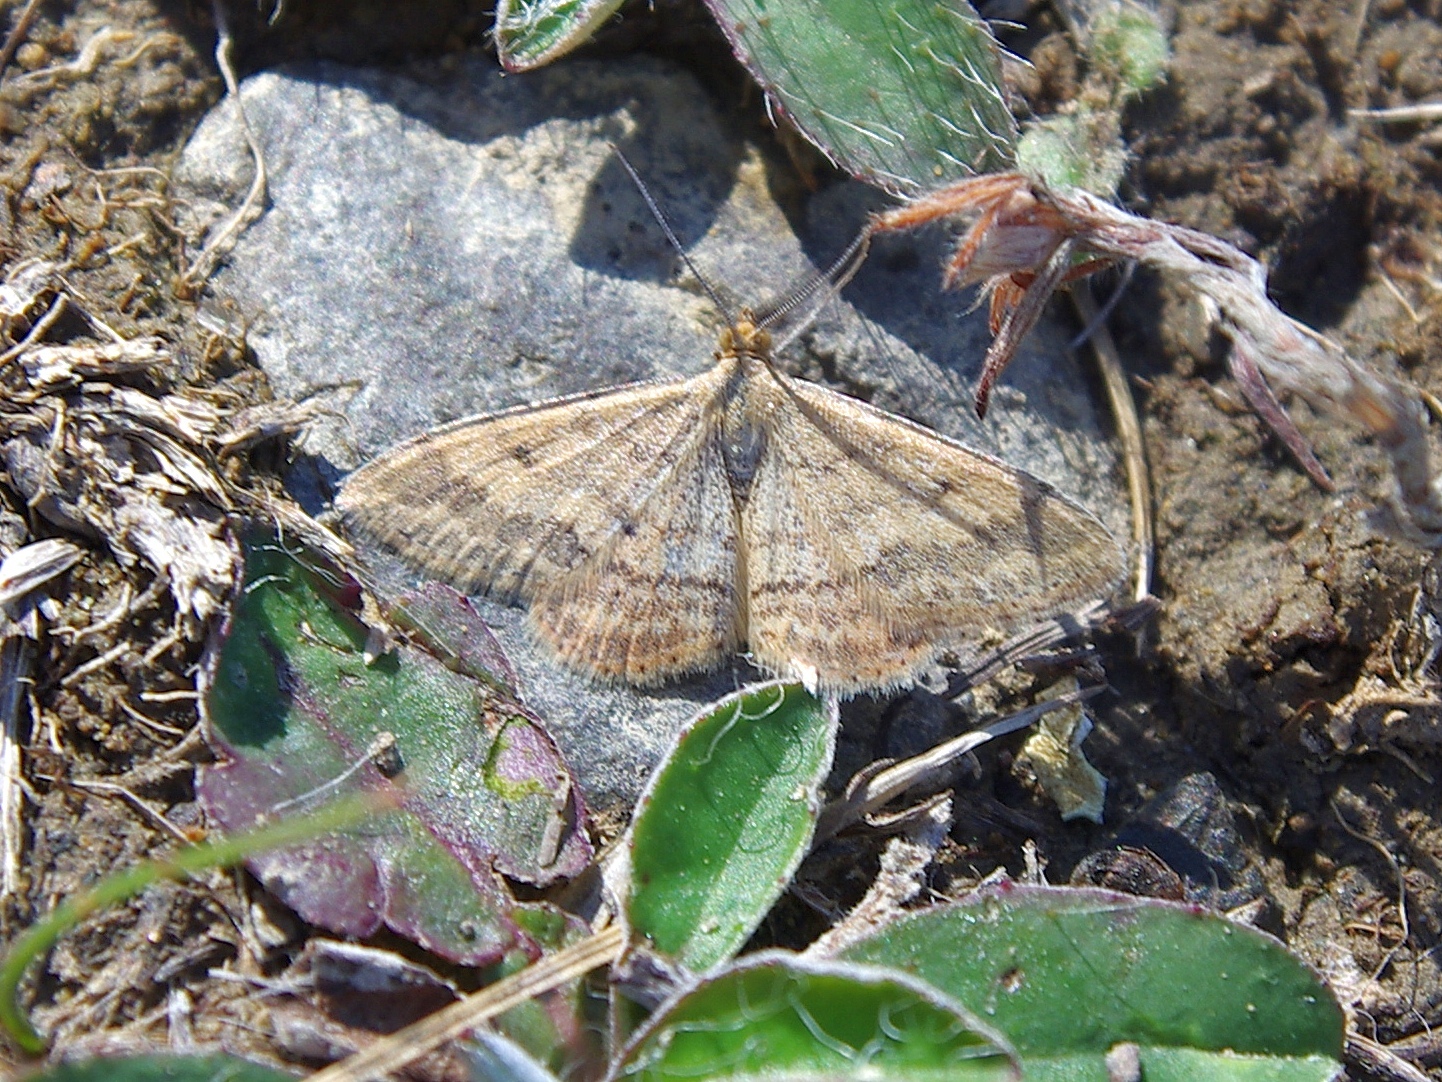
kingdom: Animalia
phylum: Arthropoda
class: Insecta
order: Lepidoptera
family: Geometridae
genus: Scopula
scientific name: Scopula rubraria
